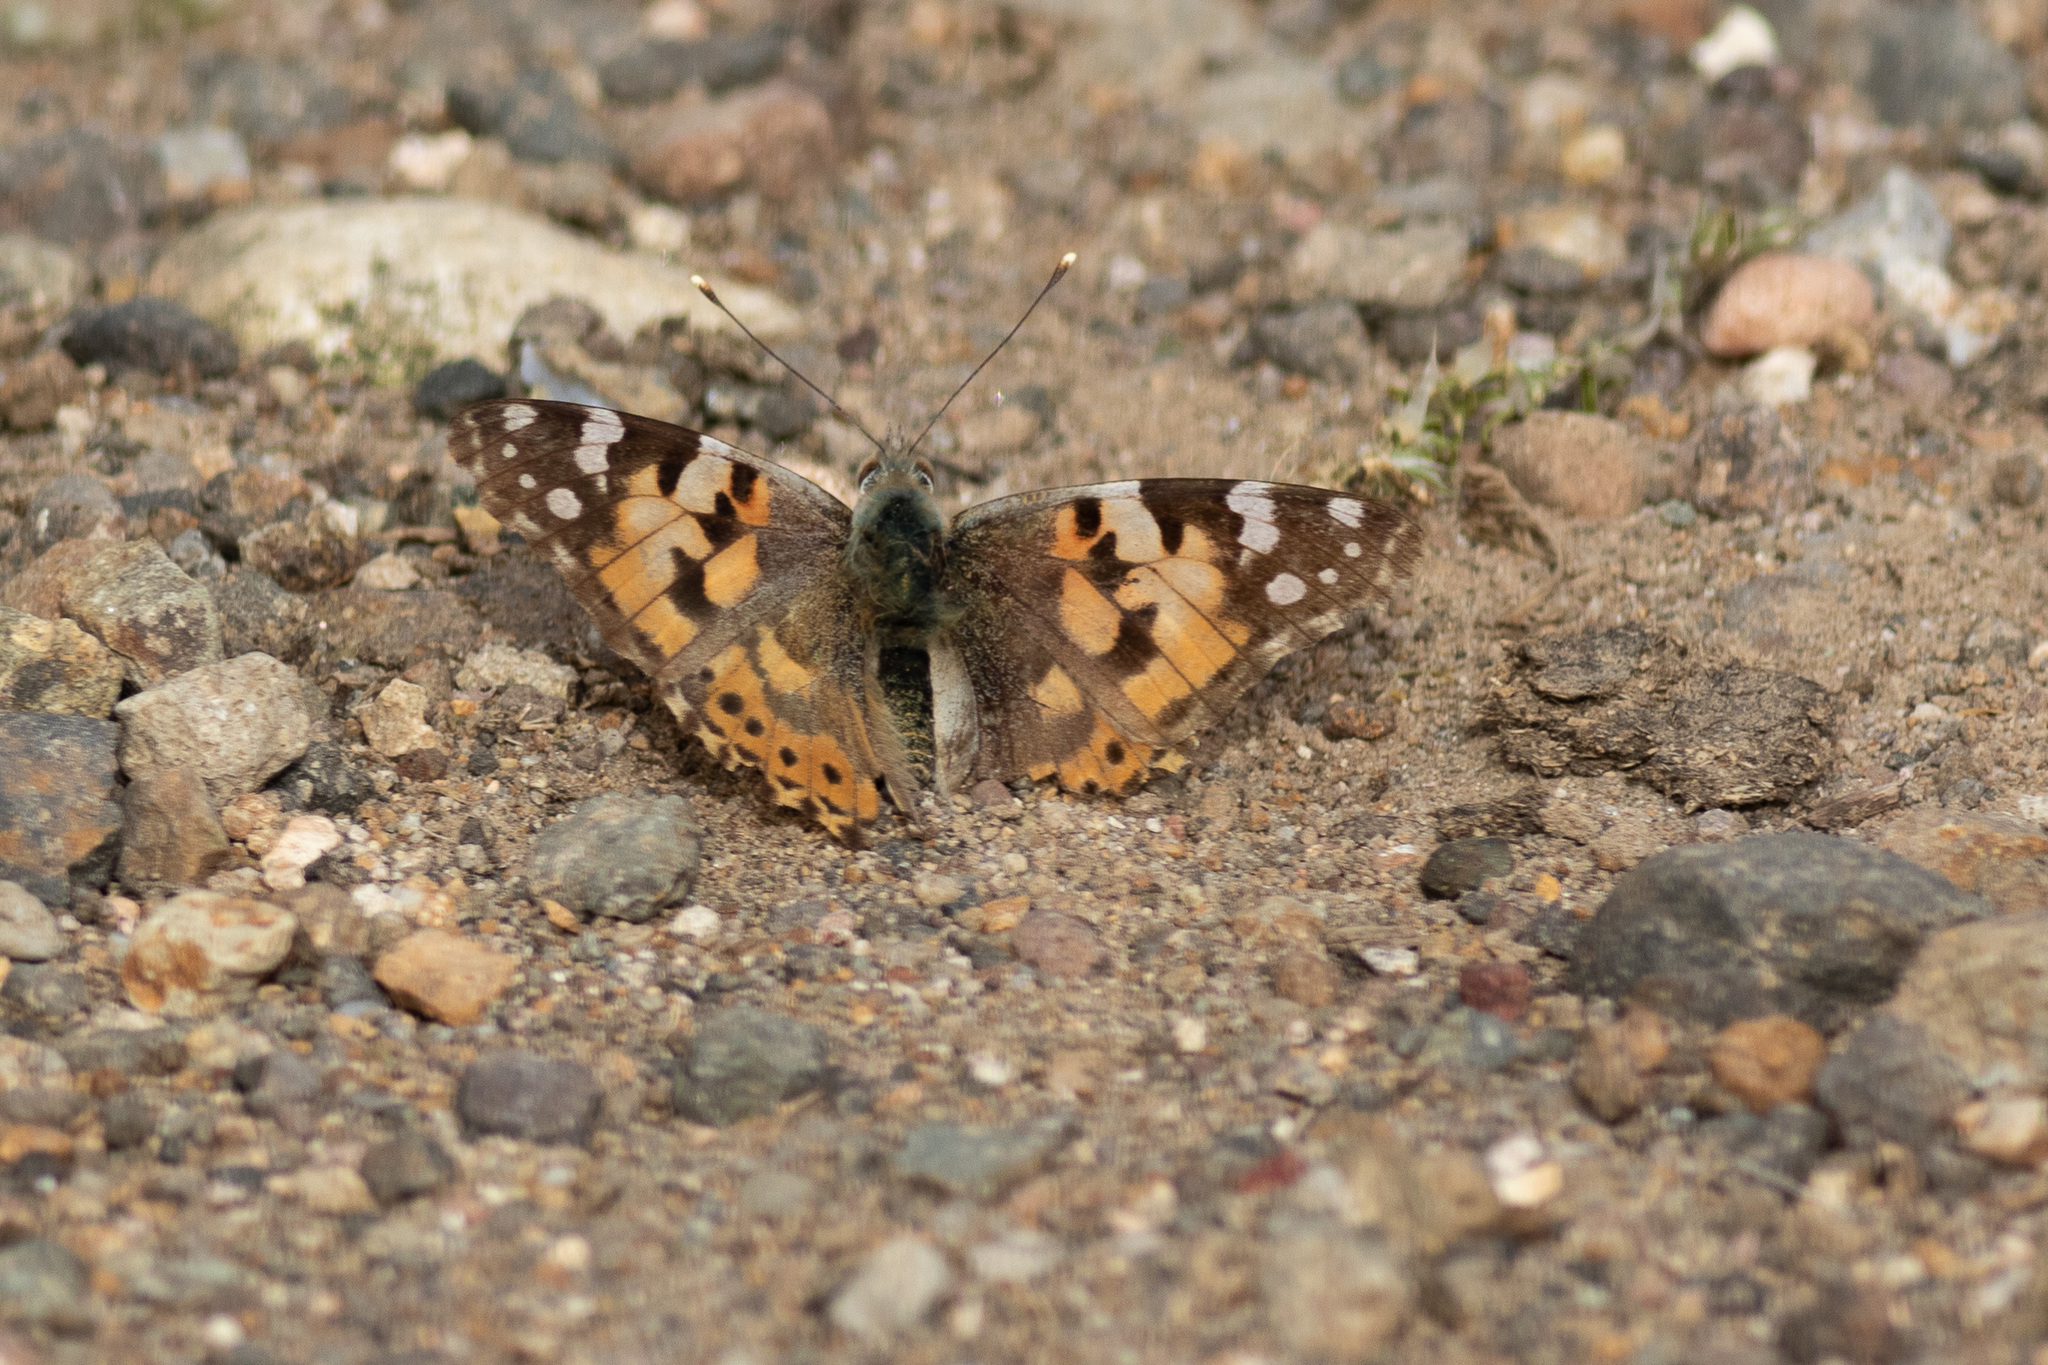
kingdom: Animalia
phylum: Arthropoda
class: Insecta
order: Lepidoptera
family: Nymphalidae
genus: Vanessa
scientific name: Vanessa cardui
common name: Painted lady
